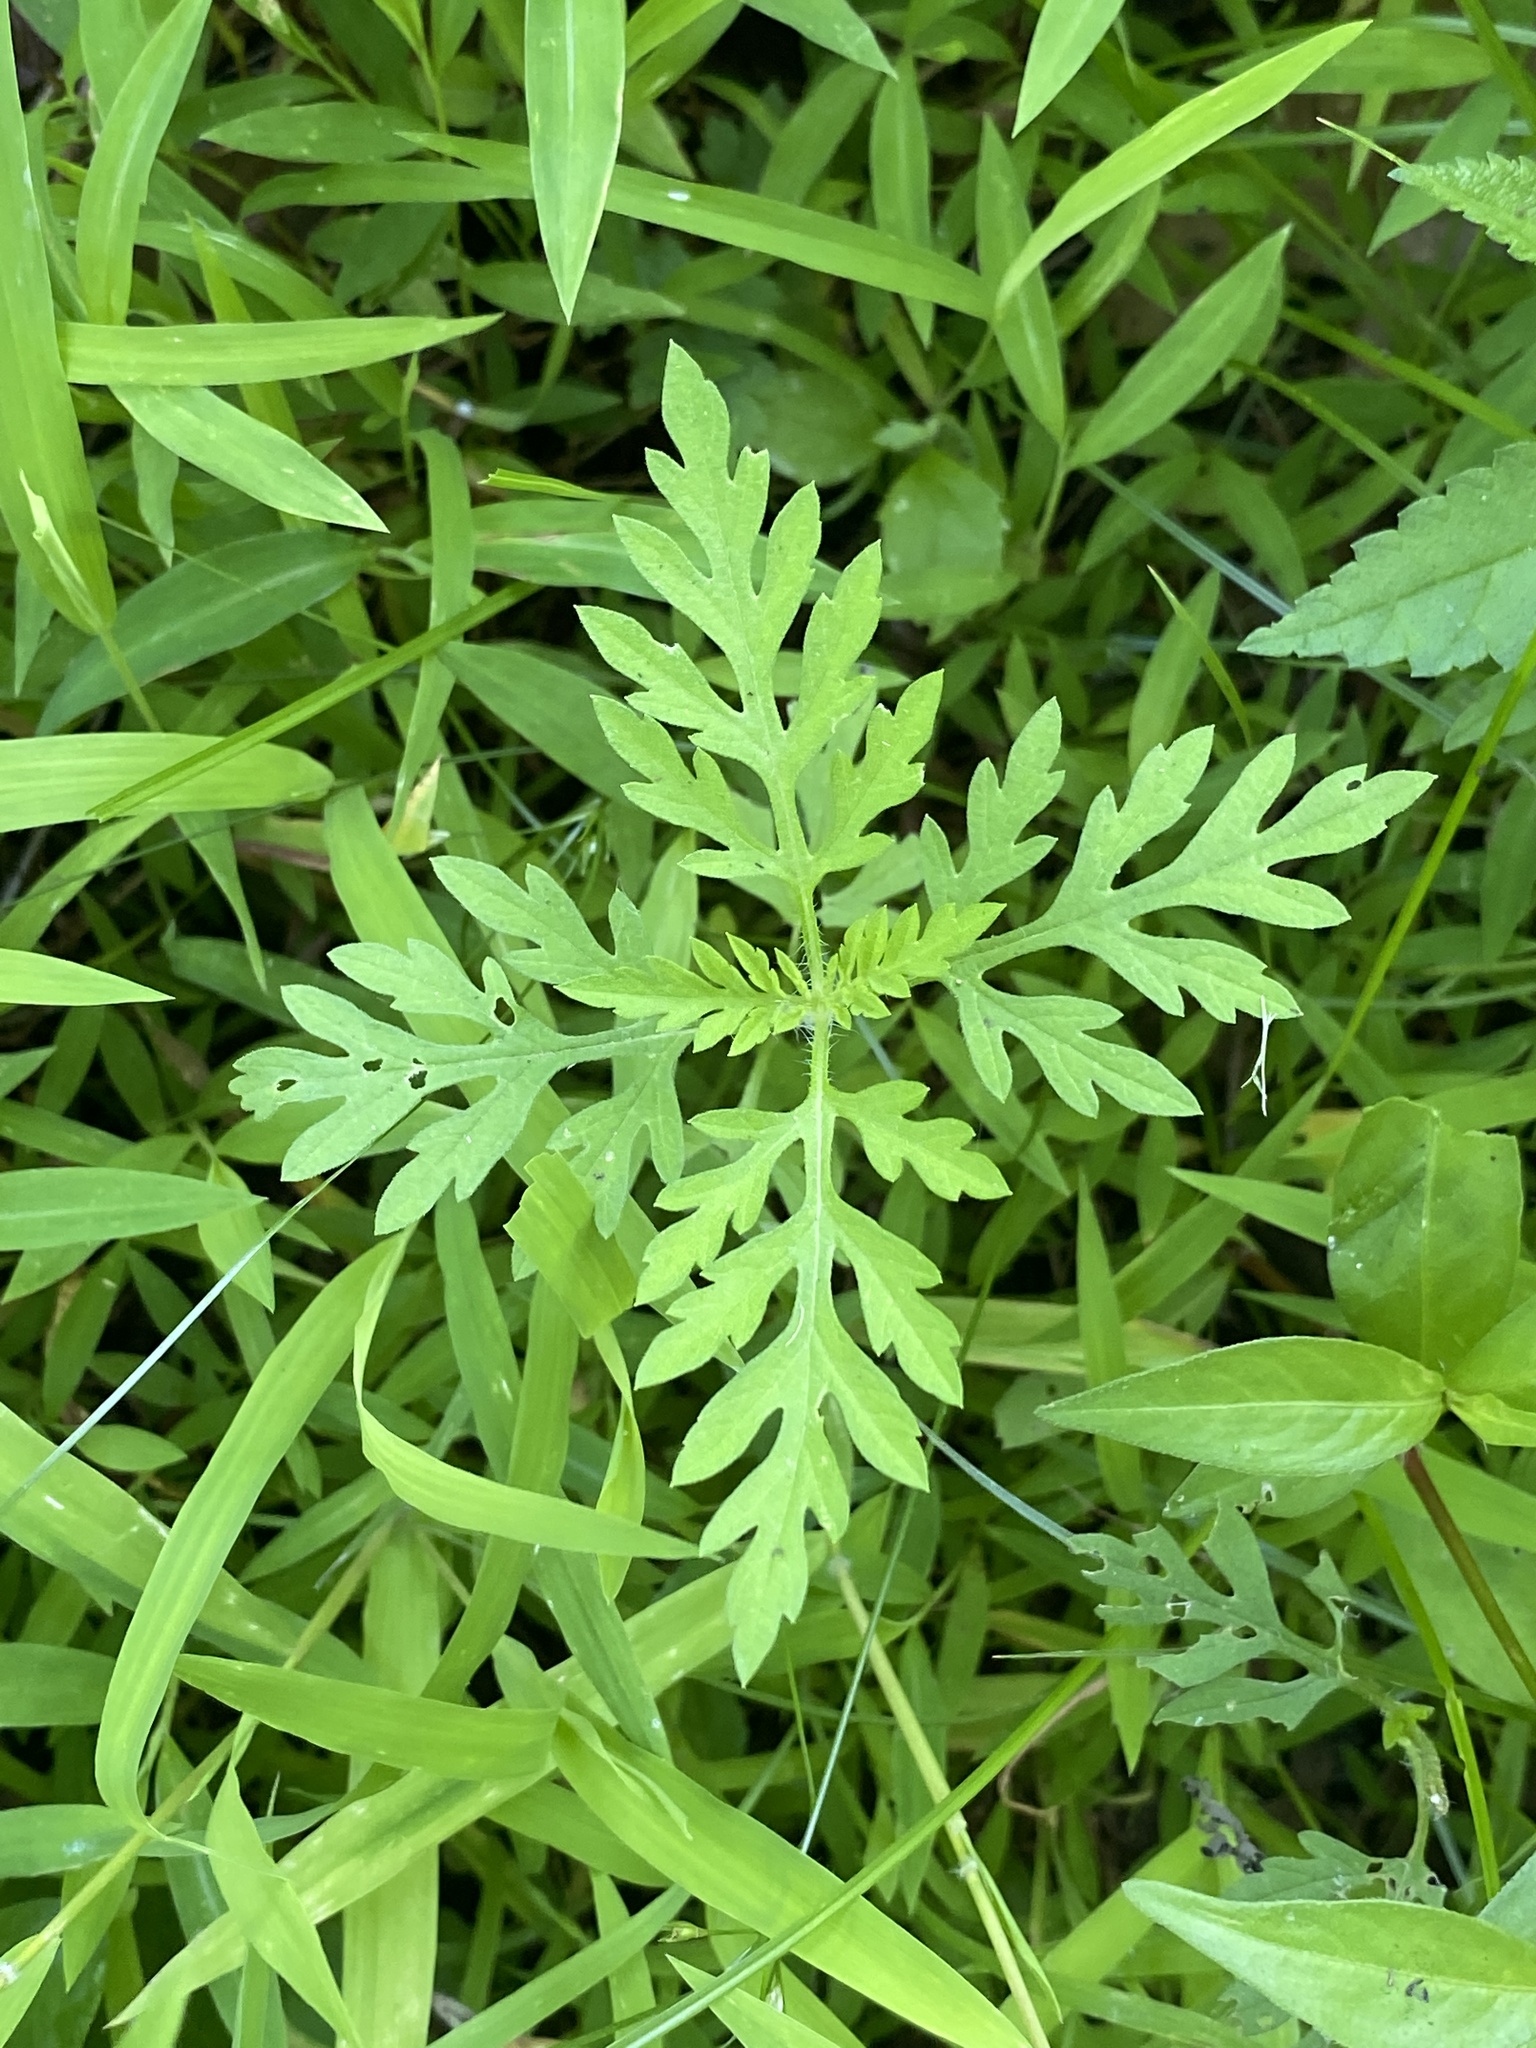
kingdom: Plantae
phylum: Tracheophyta
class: Magnoliopsida
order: Asterales
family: Asteraceae
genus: Ambrosia
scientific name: Ambrosia artemisiifolia
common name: Annual ragweed
